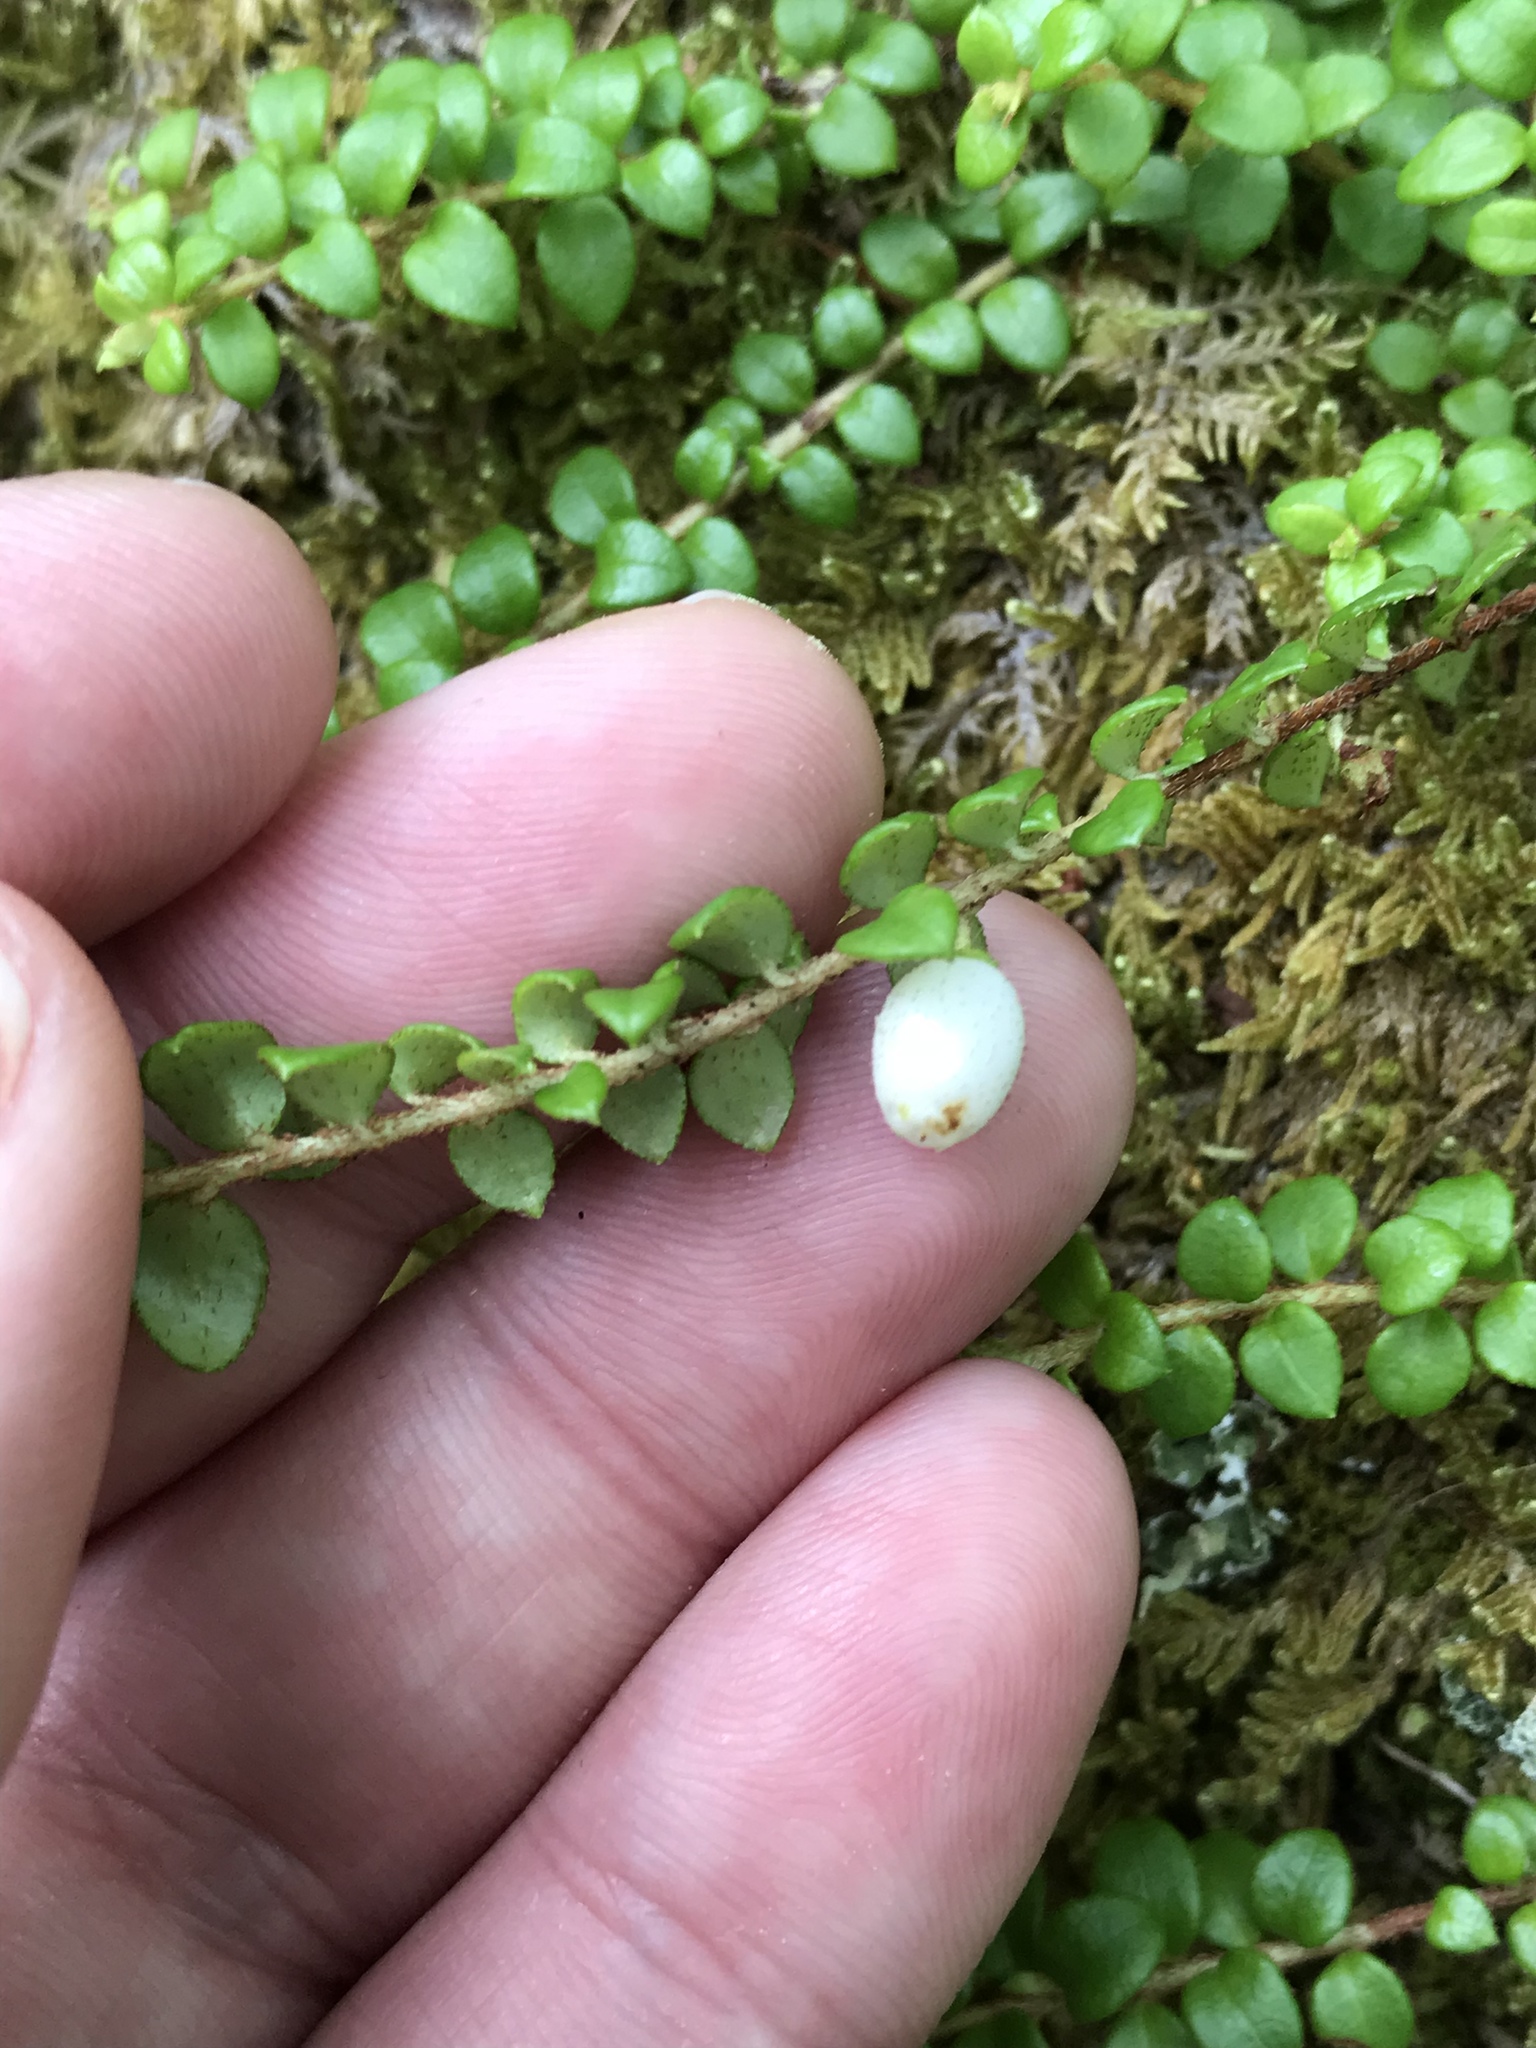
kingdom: Plantae
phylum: Tracheophyta
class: Magnoliopsida
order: Ericales
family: Ericaceae
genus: Gaultheria
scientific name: Gaultheria hispidula
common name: Cancer wintergreen
